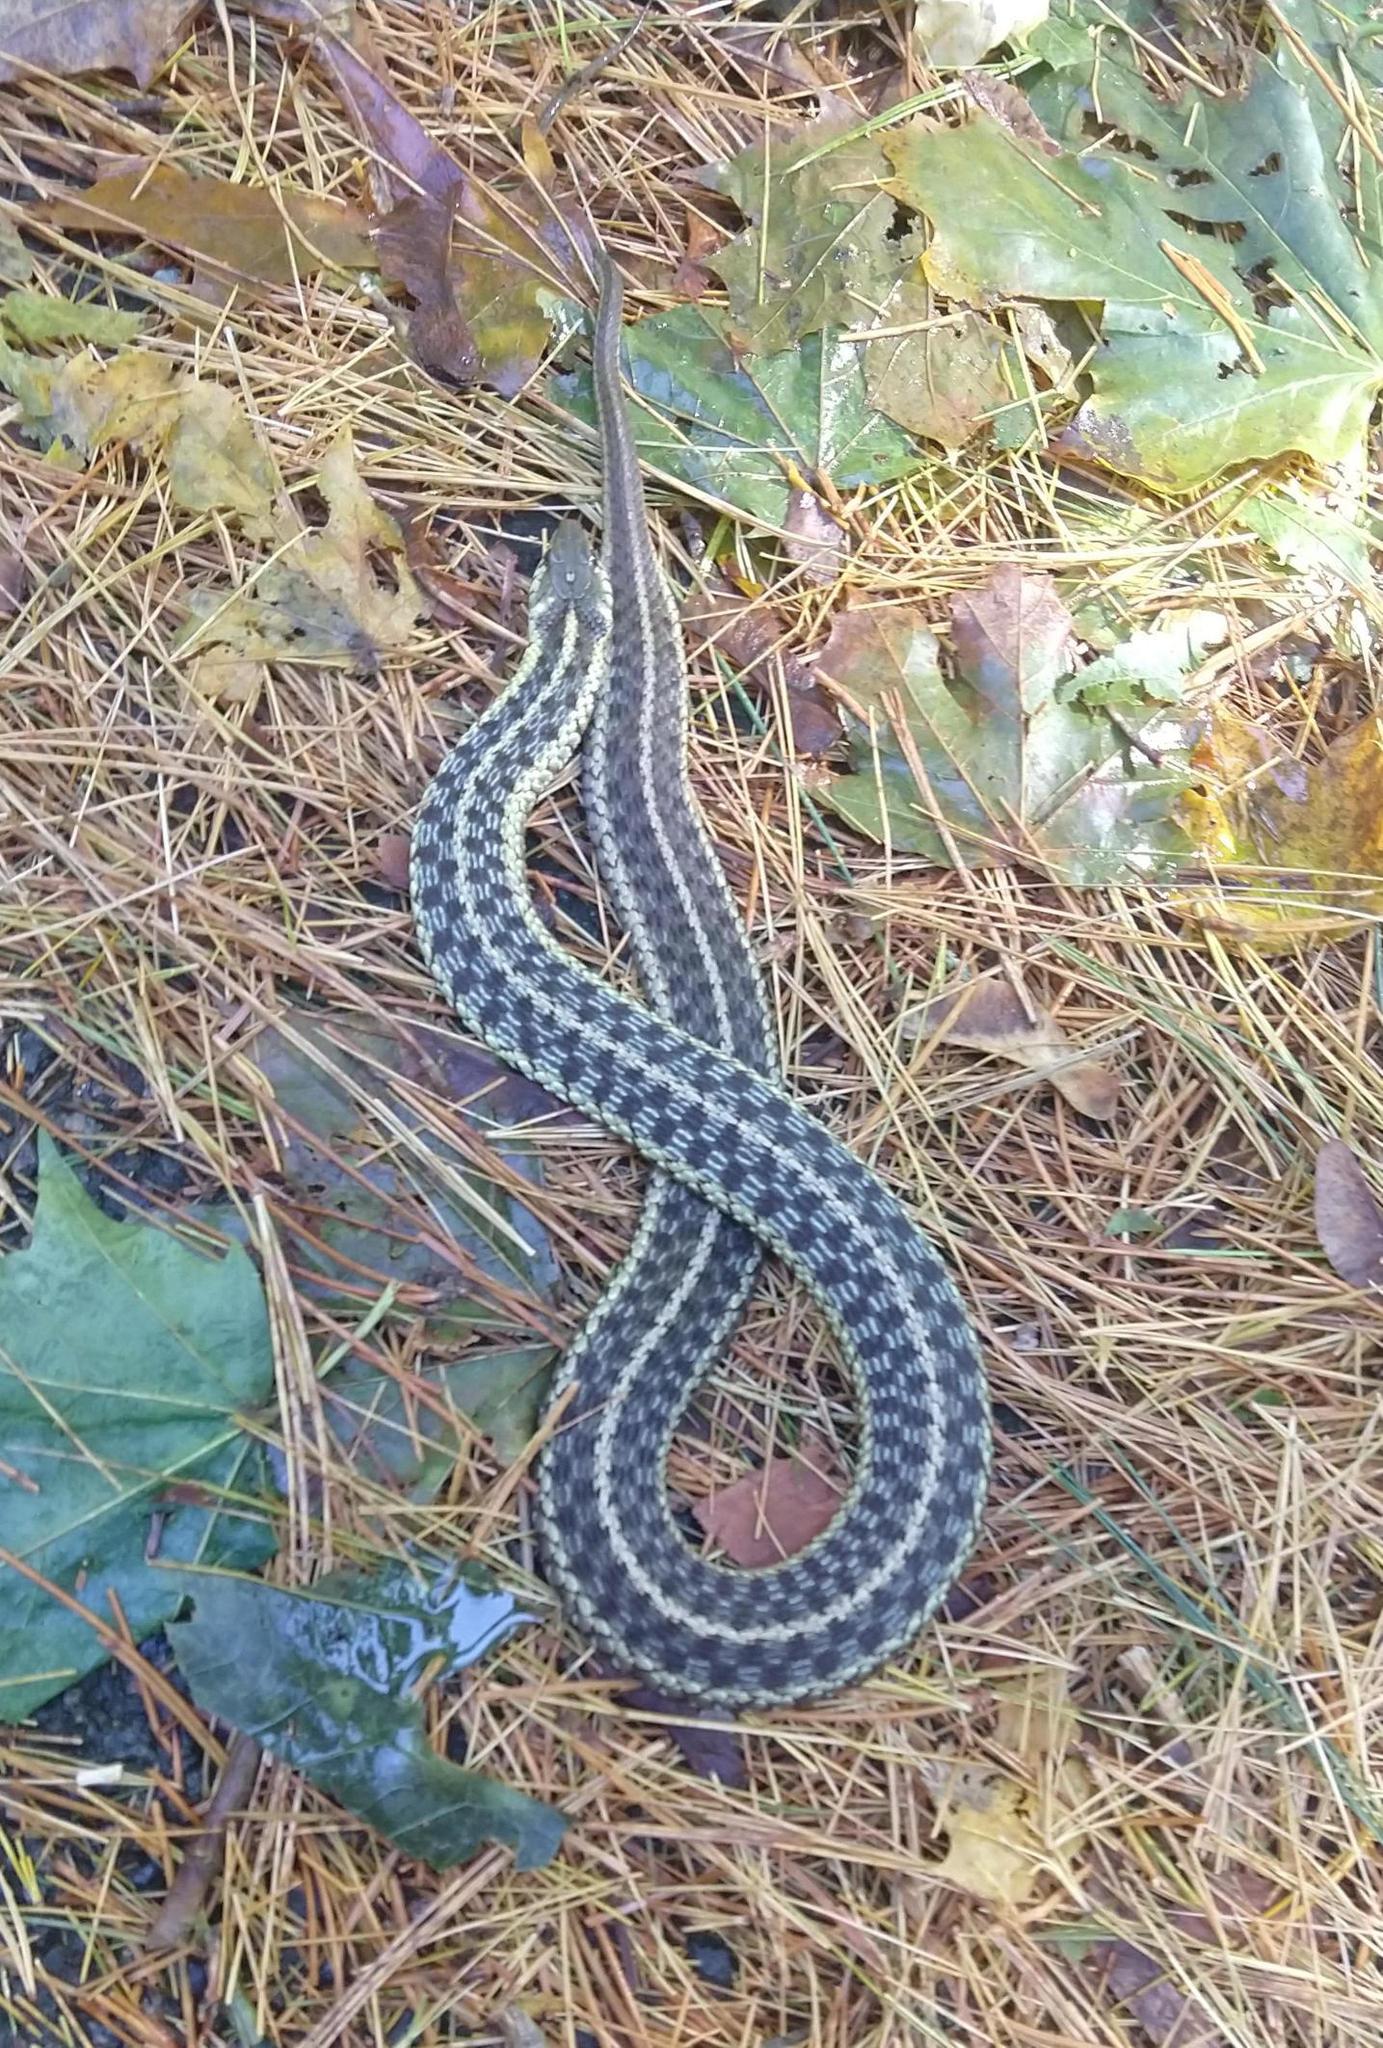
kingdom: Animalia
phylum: Chordata
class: Squamata
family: Colubridae
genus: Thamnophis
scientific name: Thamnophis sirtalis
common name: Common garter snake
